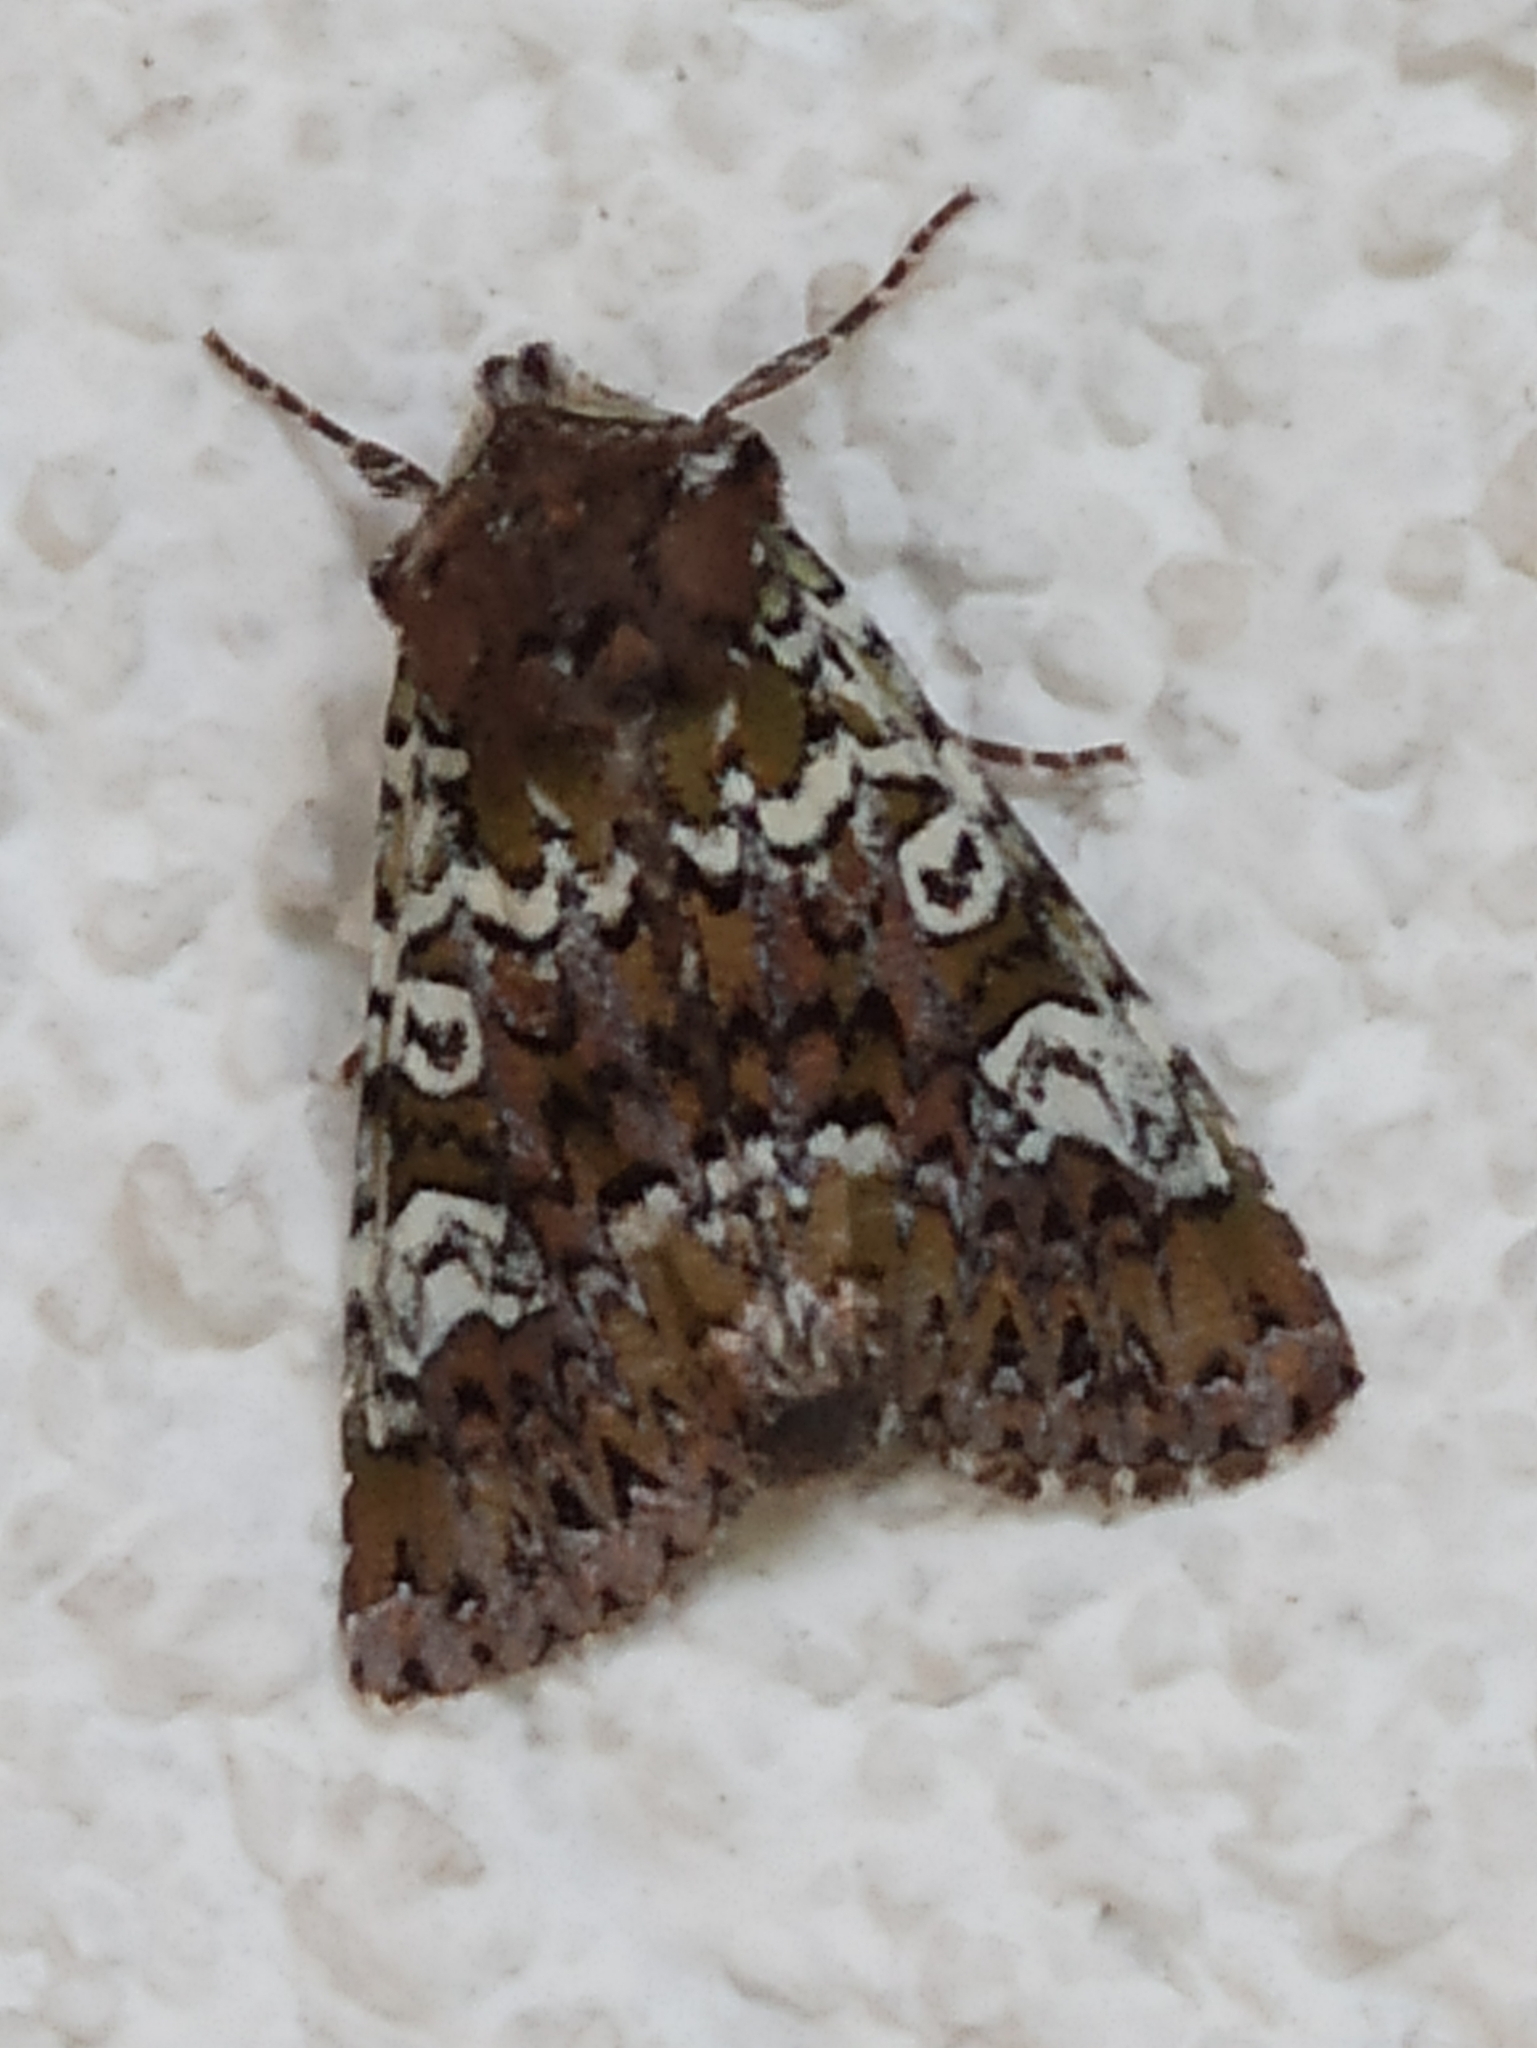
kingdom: Animalia
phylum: Arthropoda
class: Insecta
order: Lepidoptera
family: Noctuidae
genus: Crypsedra
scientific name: Crypsedra gemmea
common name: Cameo
